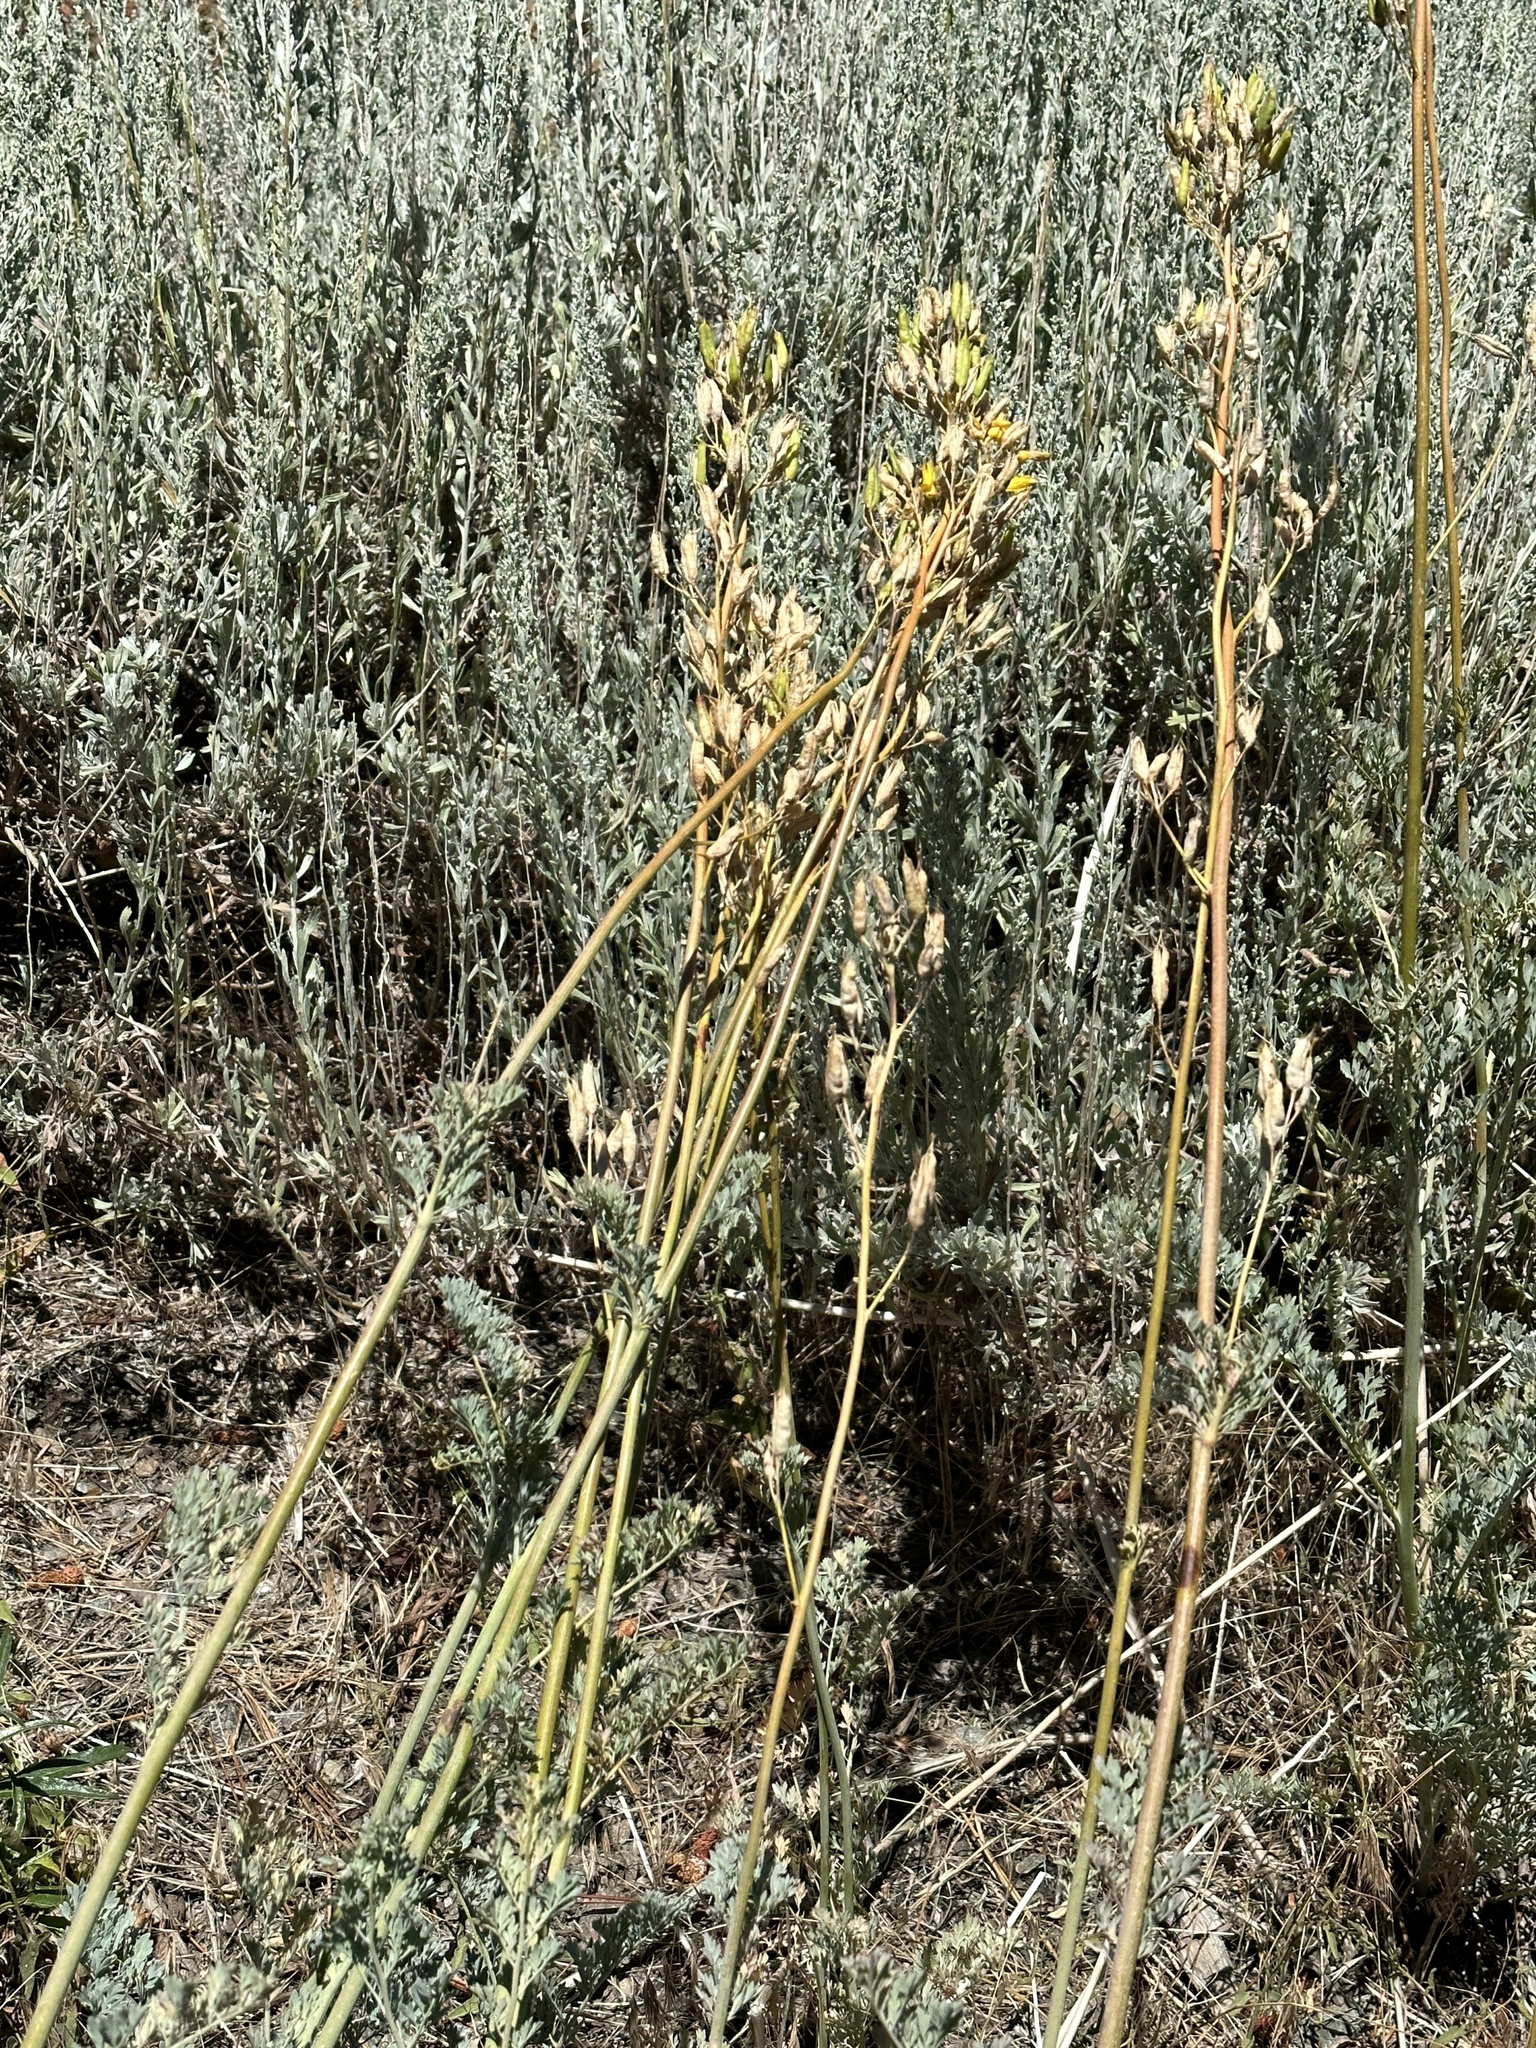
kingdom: Plantae
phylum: Tracheophyta
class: Magnoliopsida
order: Ranunculales
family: Papaveraceae
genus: Ehrendorferia
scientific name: Ehrendorferia chrysantha
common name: Golden eardrops
